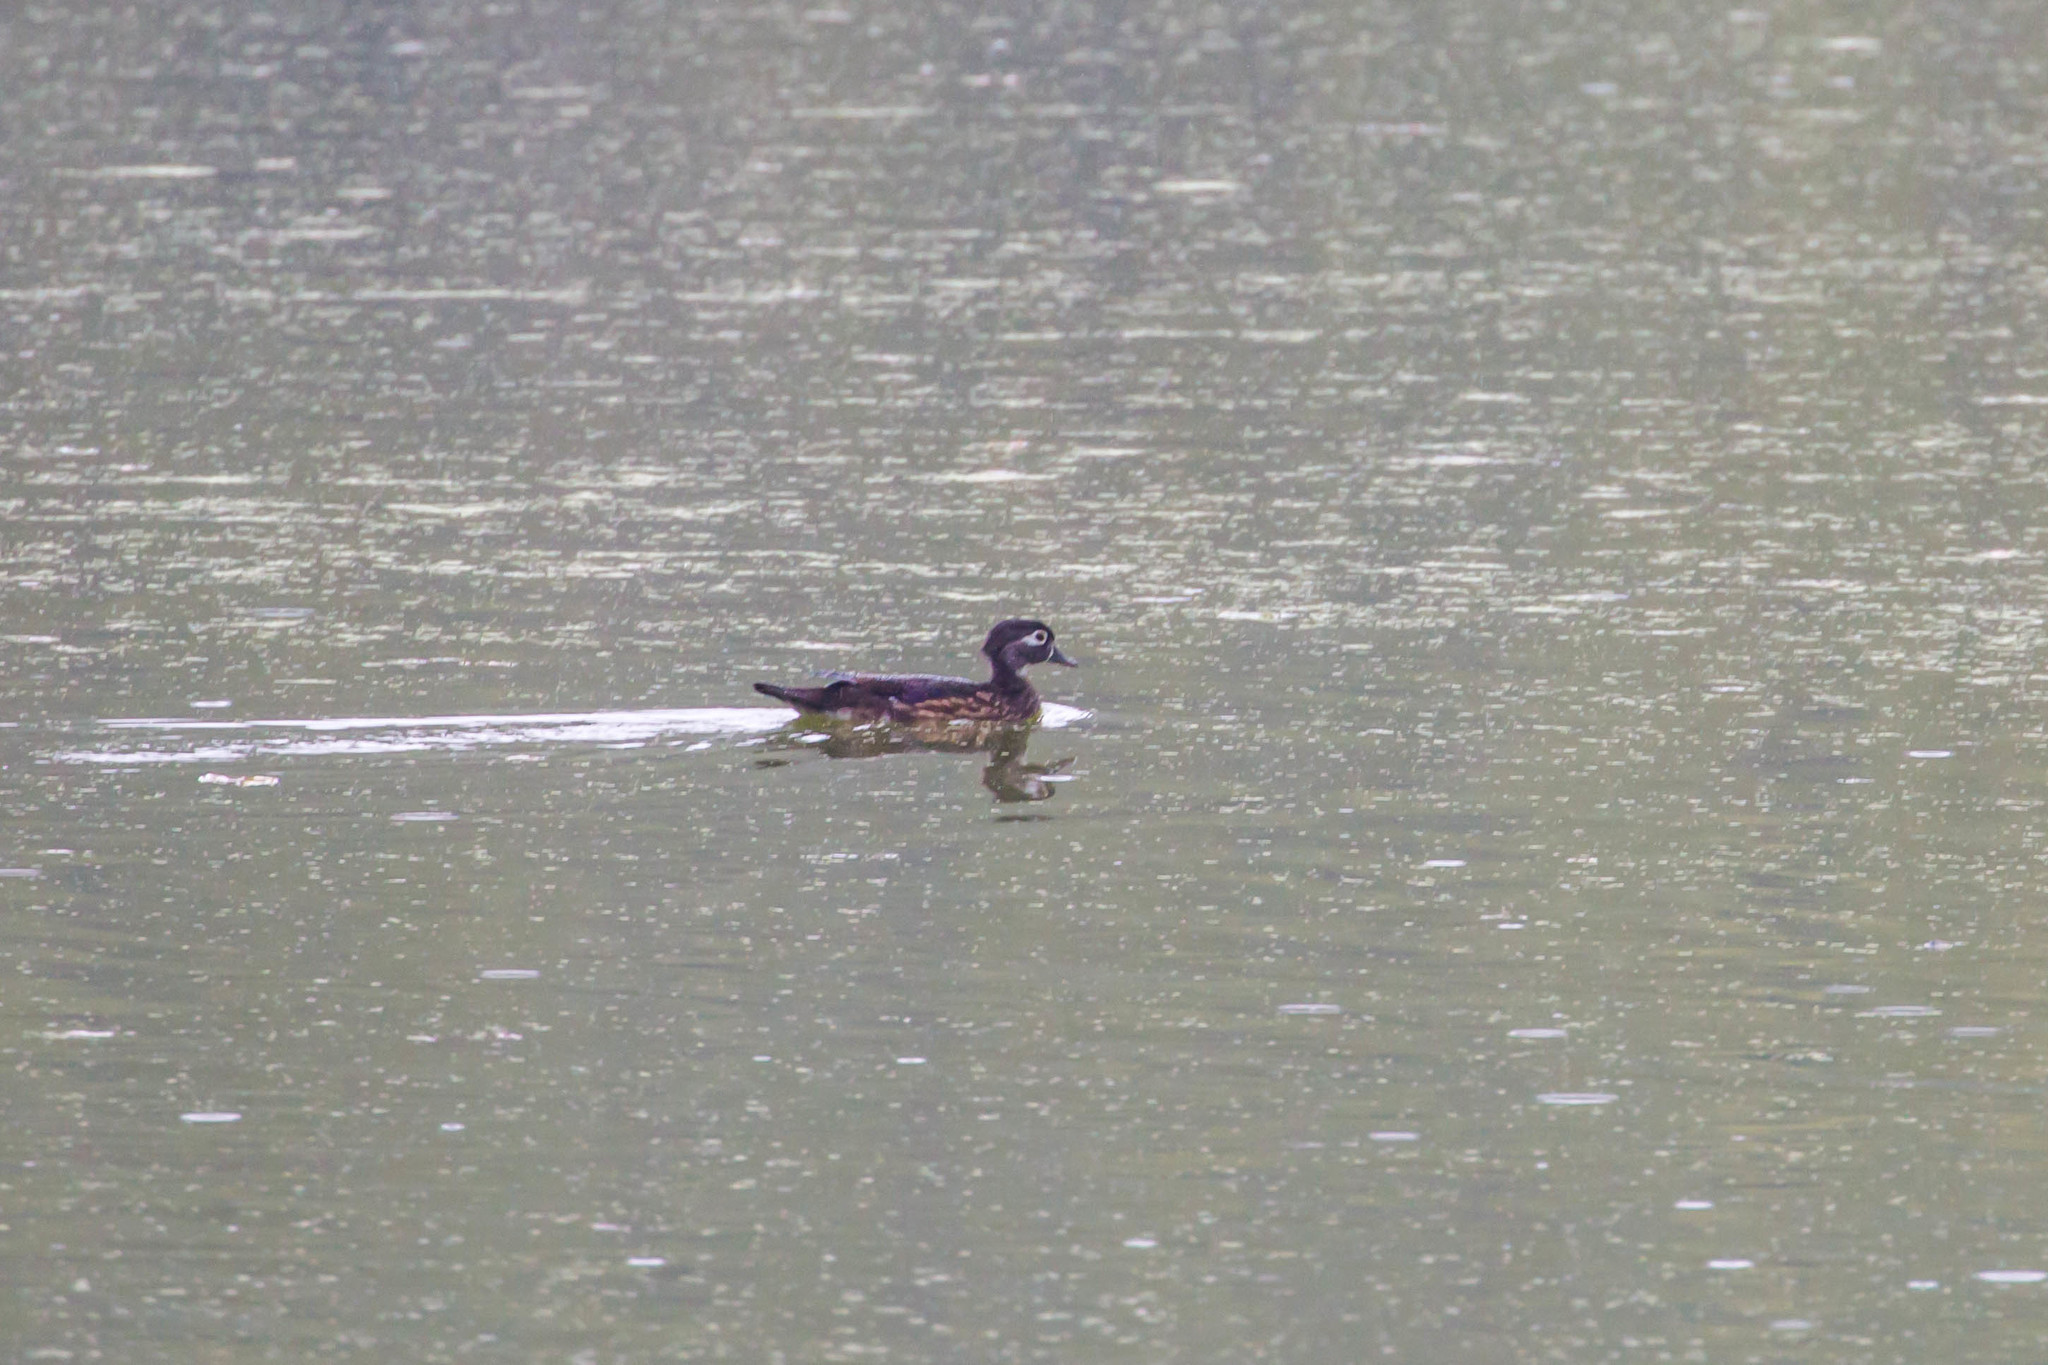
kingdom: Animalia
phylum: Chordata
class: Aves
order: Anseriformes
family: Anatidae
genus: Aix
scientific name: Aix sponsa
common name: Wood duck
